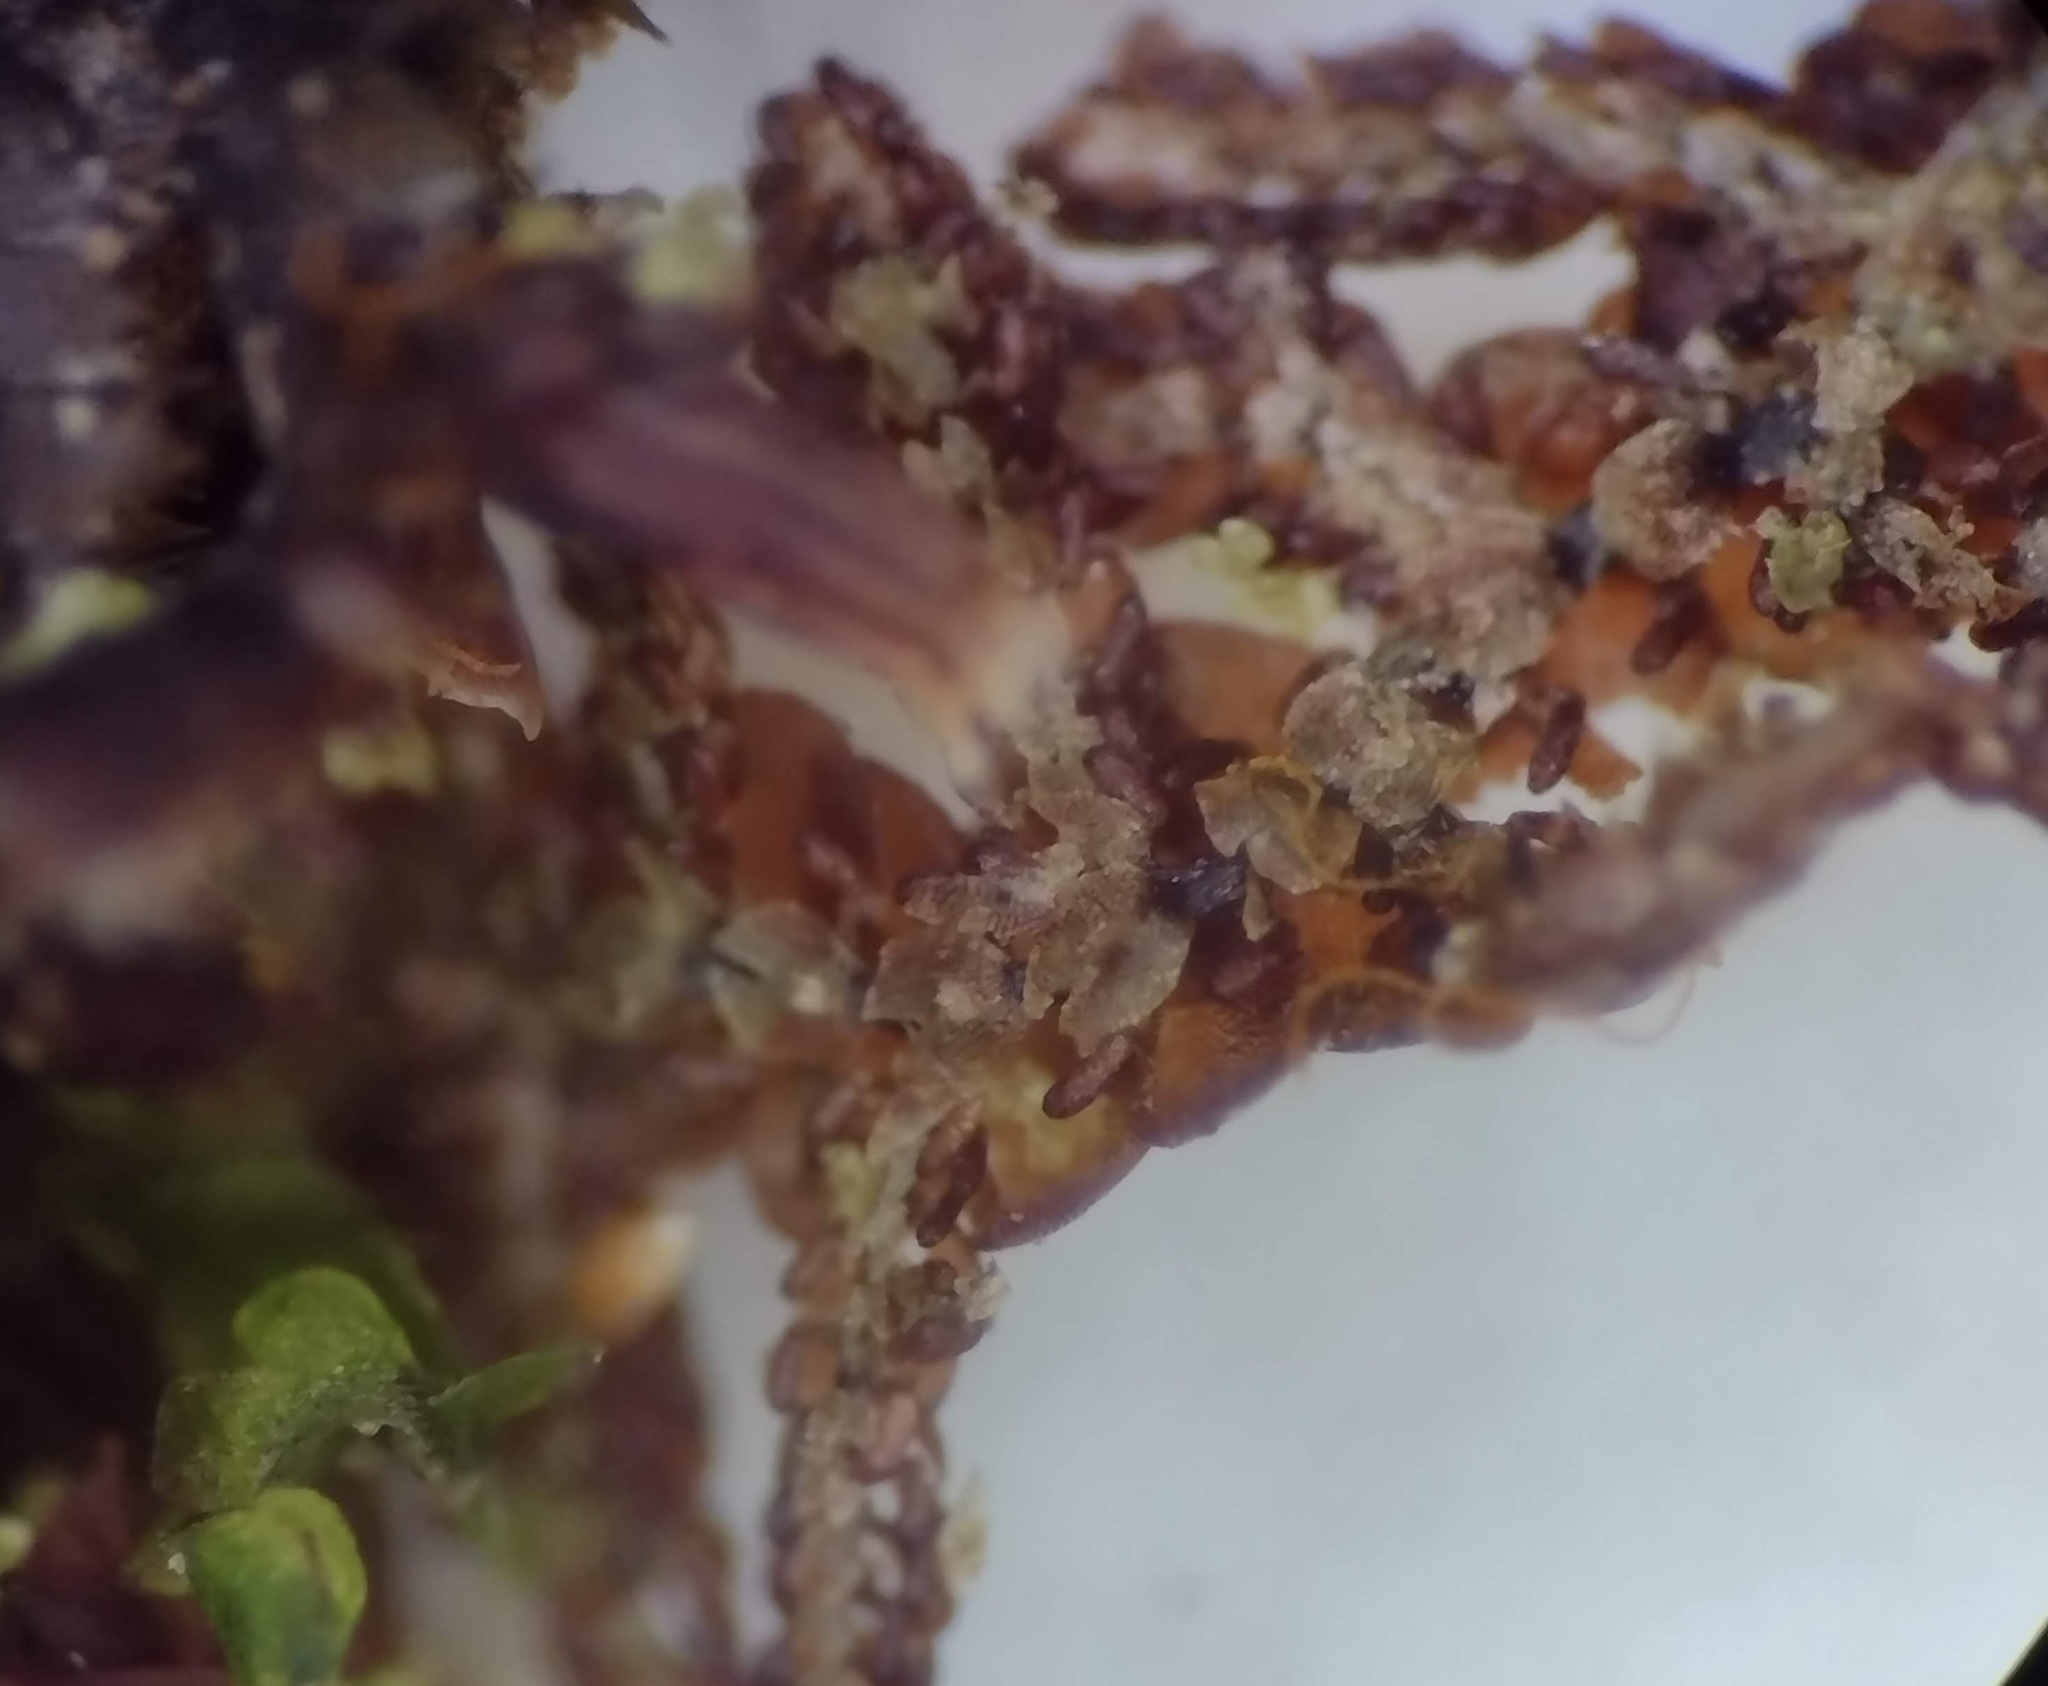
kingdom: Plantae
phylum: Marchantiophyta
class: Jungermanniopsida
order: Porellales
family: Frullaniaceae
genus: Frullania
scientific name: Frullania hypoleuca
